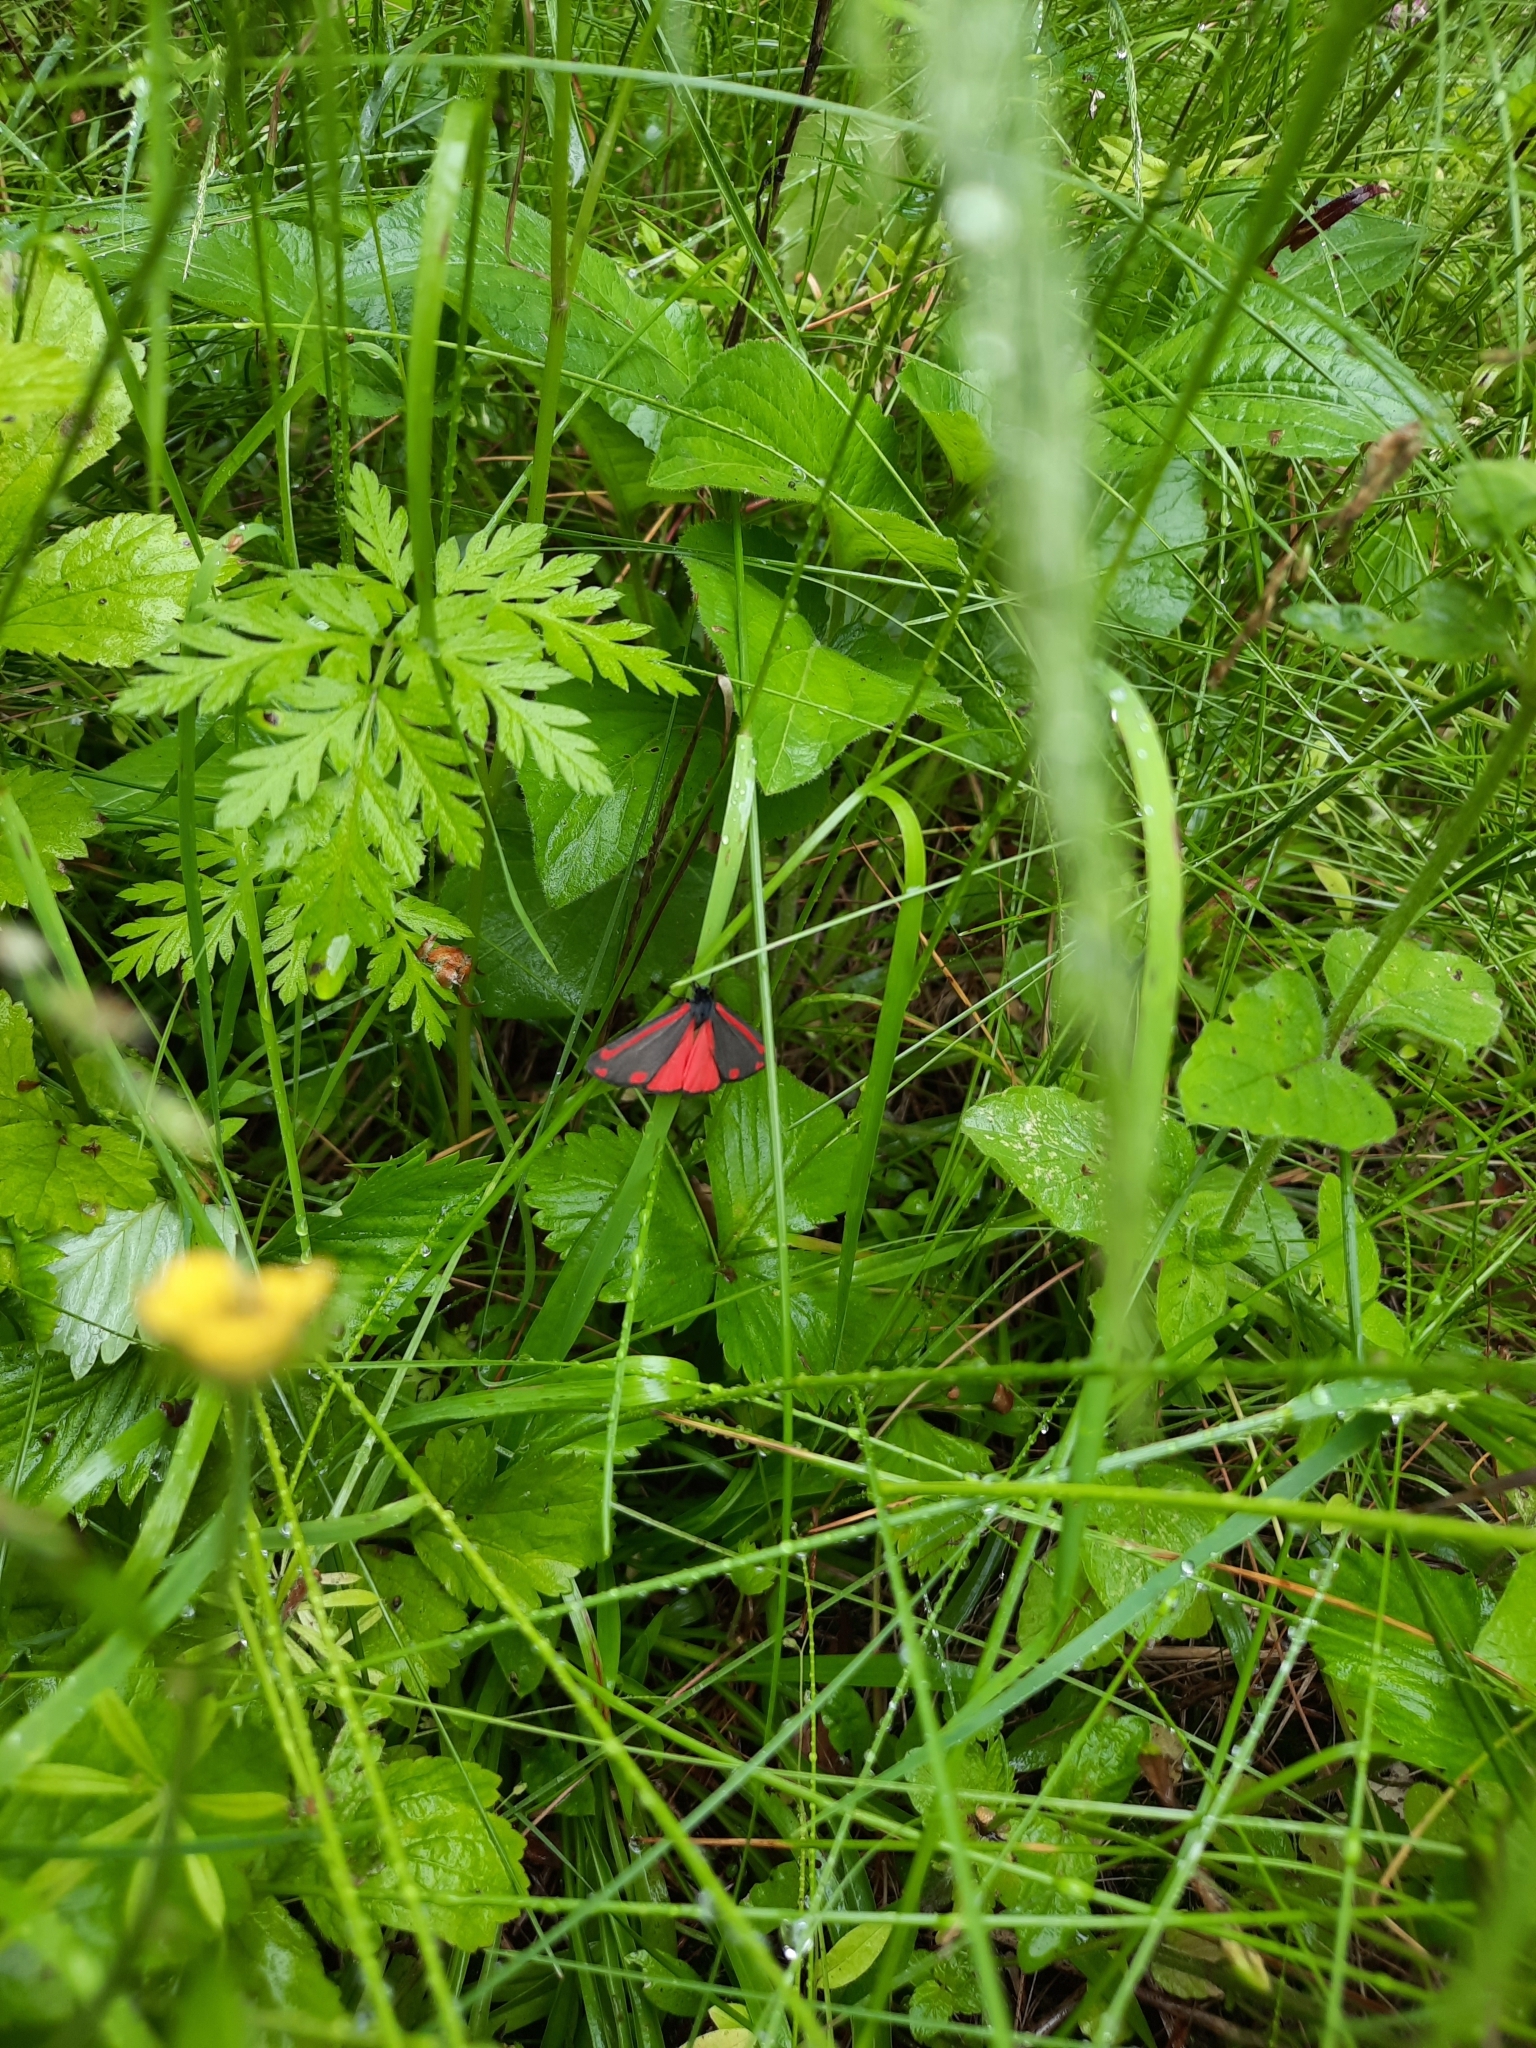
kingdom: Animalia
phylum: Arthropoda
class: Insecta
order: Lepidoptera
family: Erebidae
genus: Tyria
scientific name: Tyria jacobaeae
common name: Cinnabar
